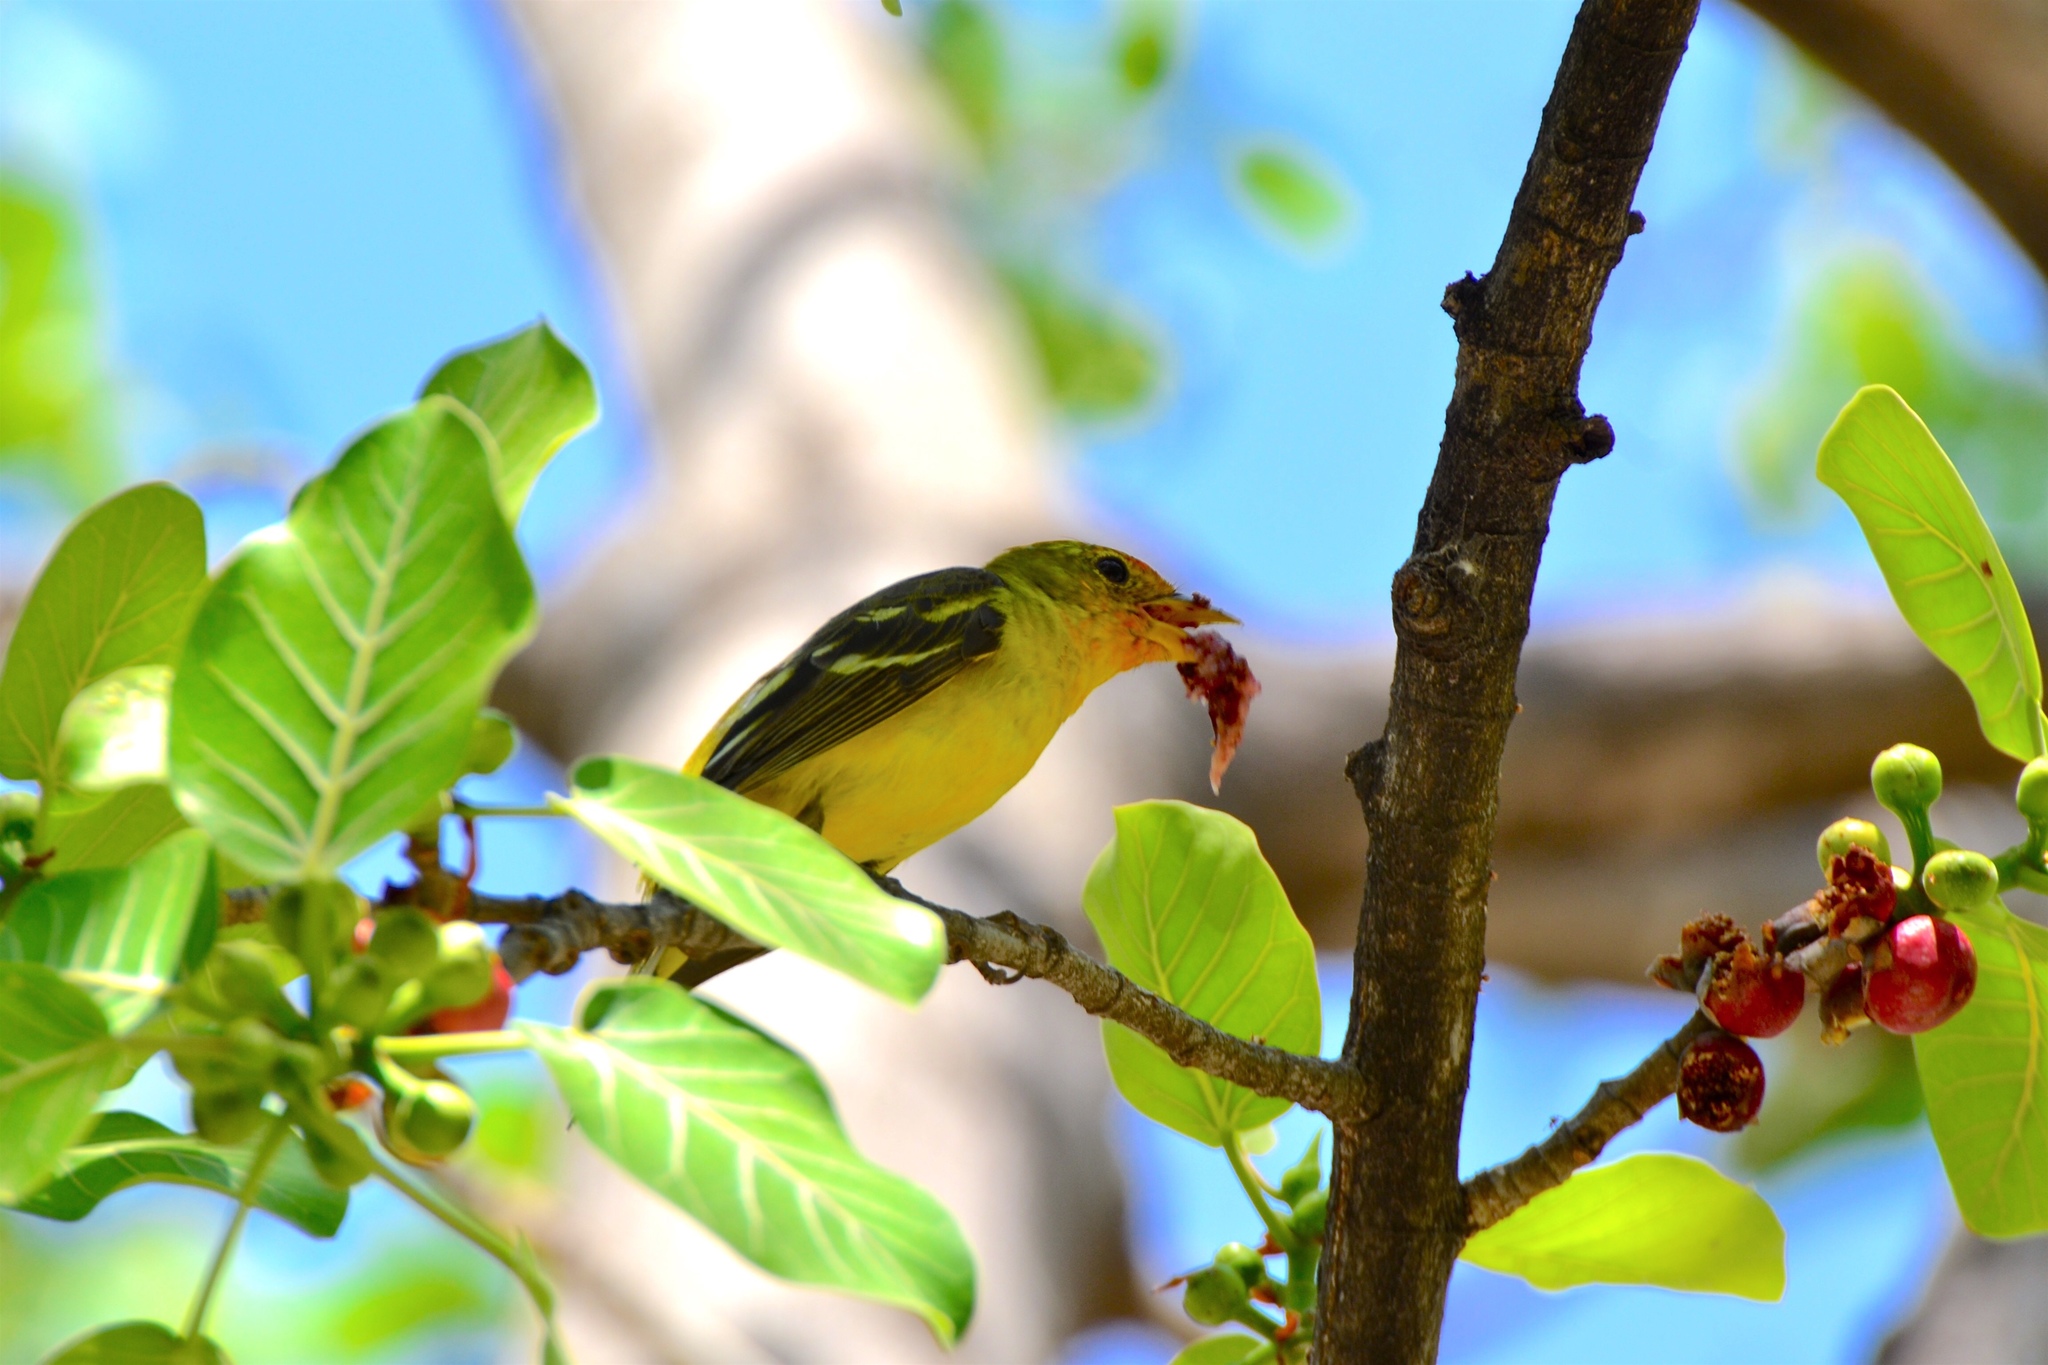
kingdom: Animalia
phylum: Chordata
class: Aves
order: Passeriformes
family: Cardinalidae
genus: Piranga
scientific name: Piranga ludoviciana
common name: Western tanager
